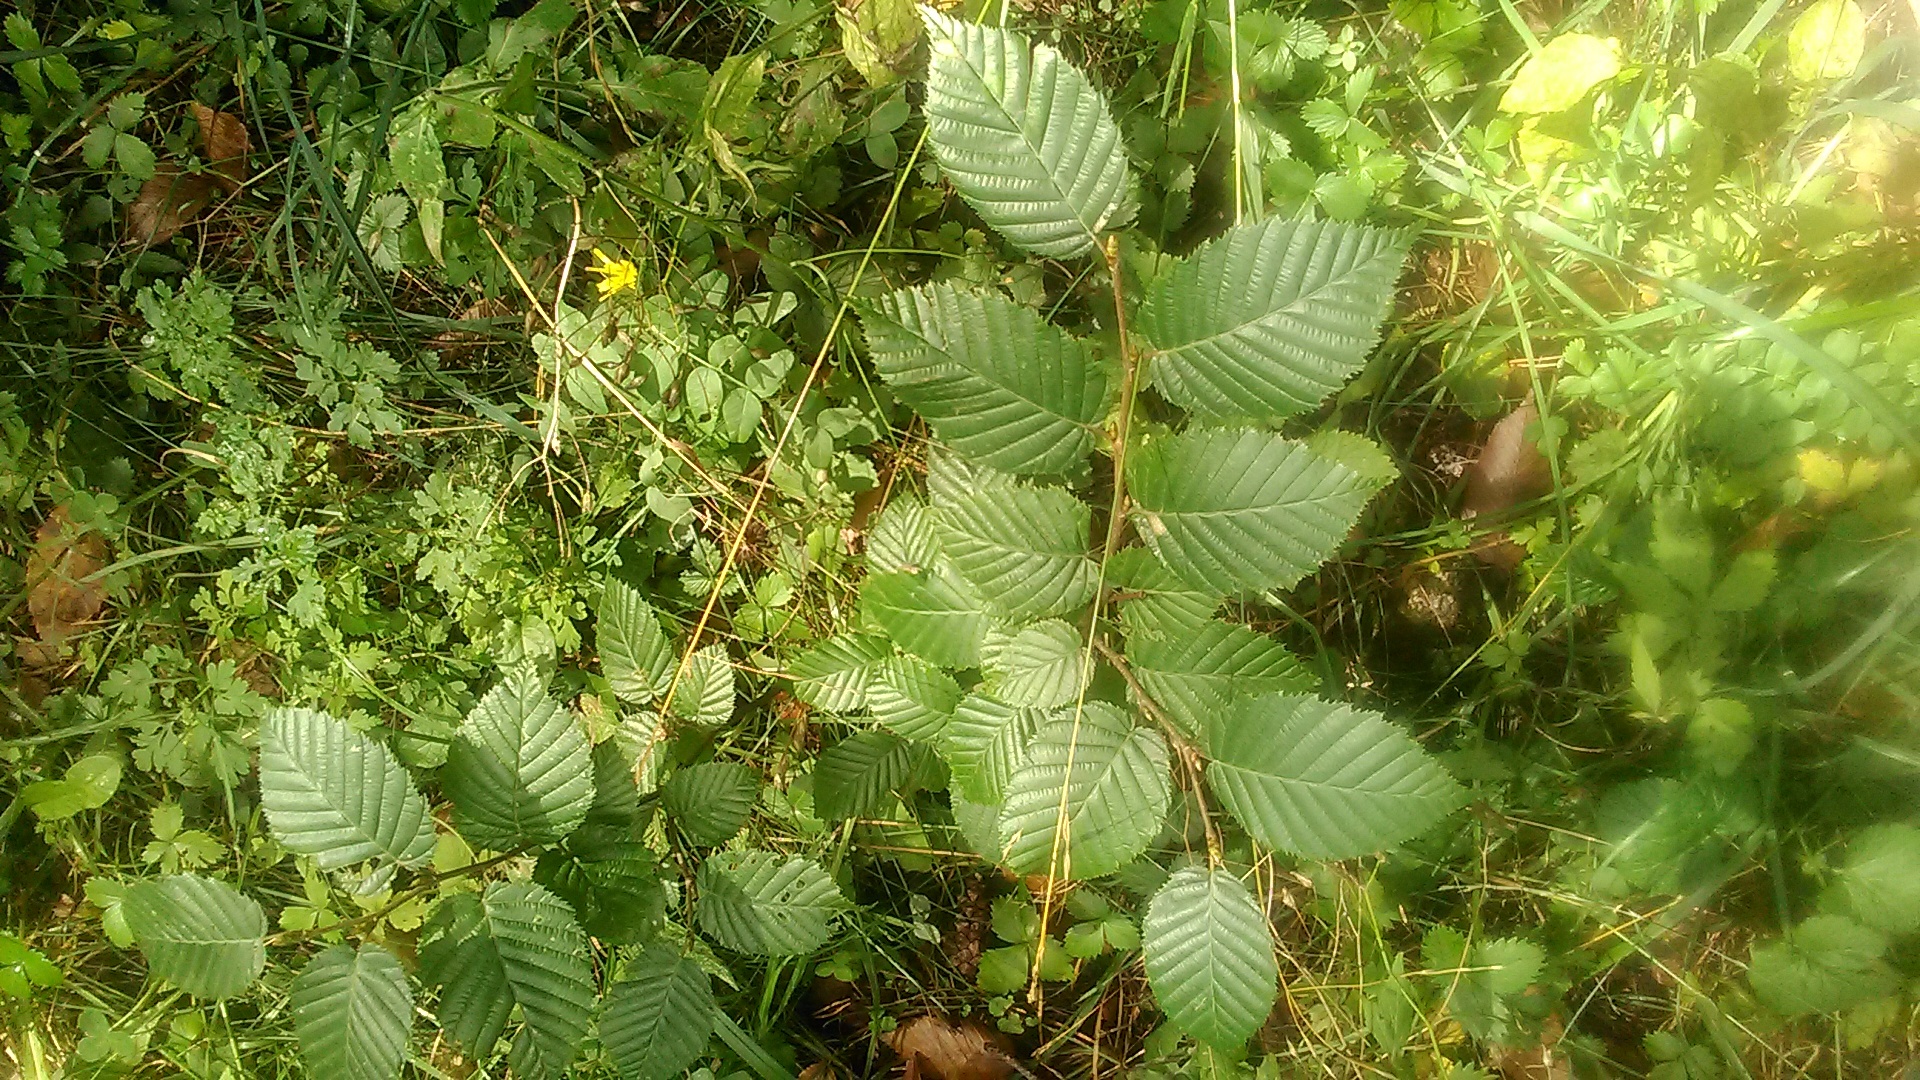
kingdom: Plantae
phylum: Tracheophyta
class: Magnoliopsida
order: Fagales
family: Betulaceae
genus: Carpinus
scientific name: Carpinus betulus
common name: Hornbeam
